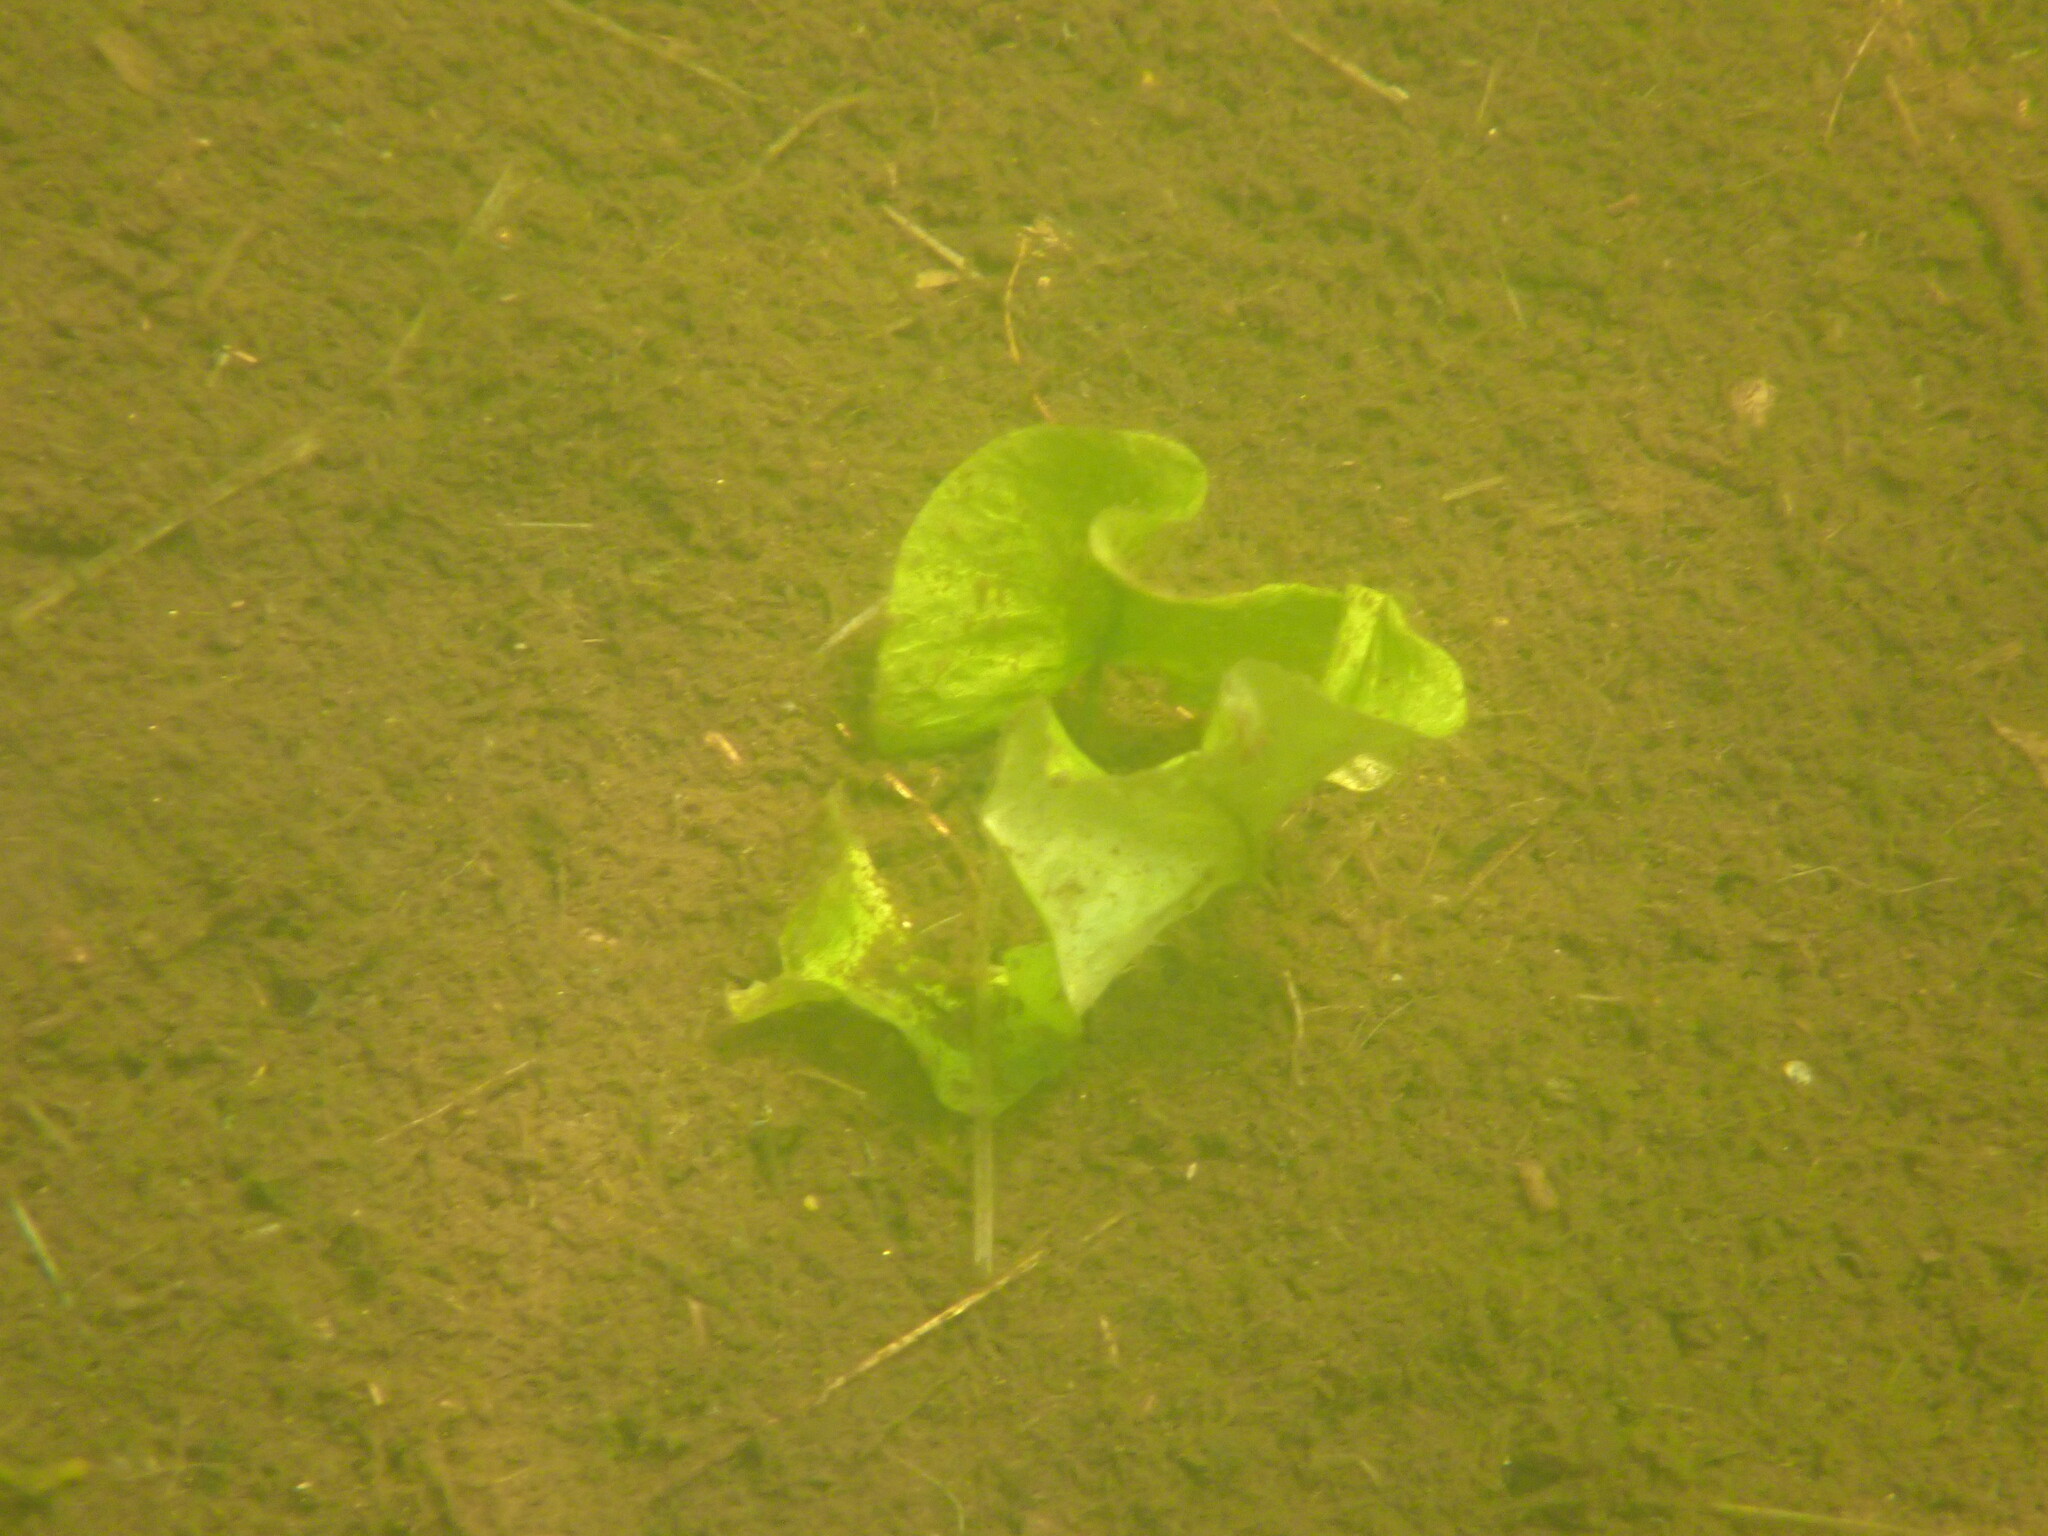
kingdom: Plantae
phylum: Tracheophyta
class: Magnoliopsida
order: Nymphaeales
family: Nymphaeaceae
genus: Nuphar
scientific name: Nuphar polysepala
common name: Rocky mountain cow-lily
